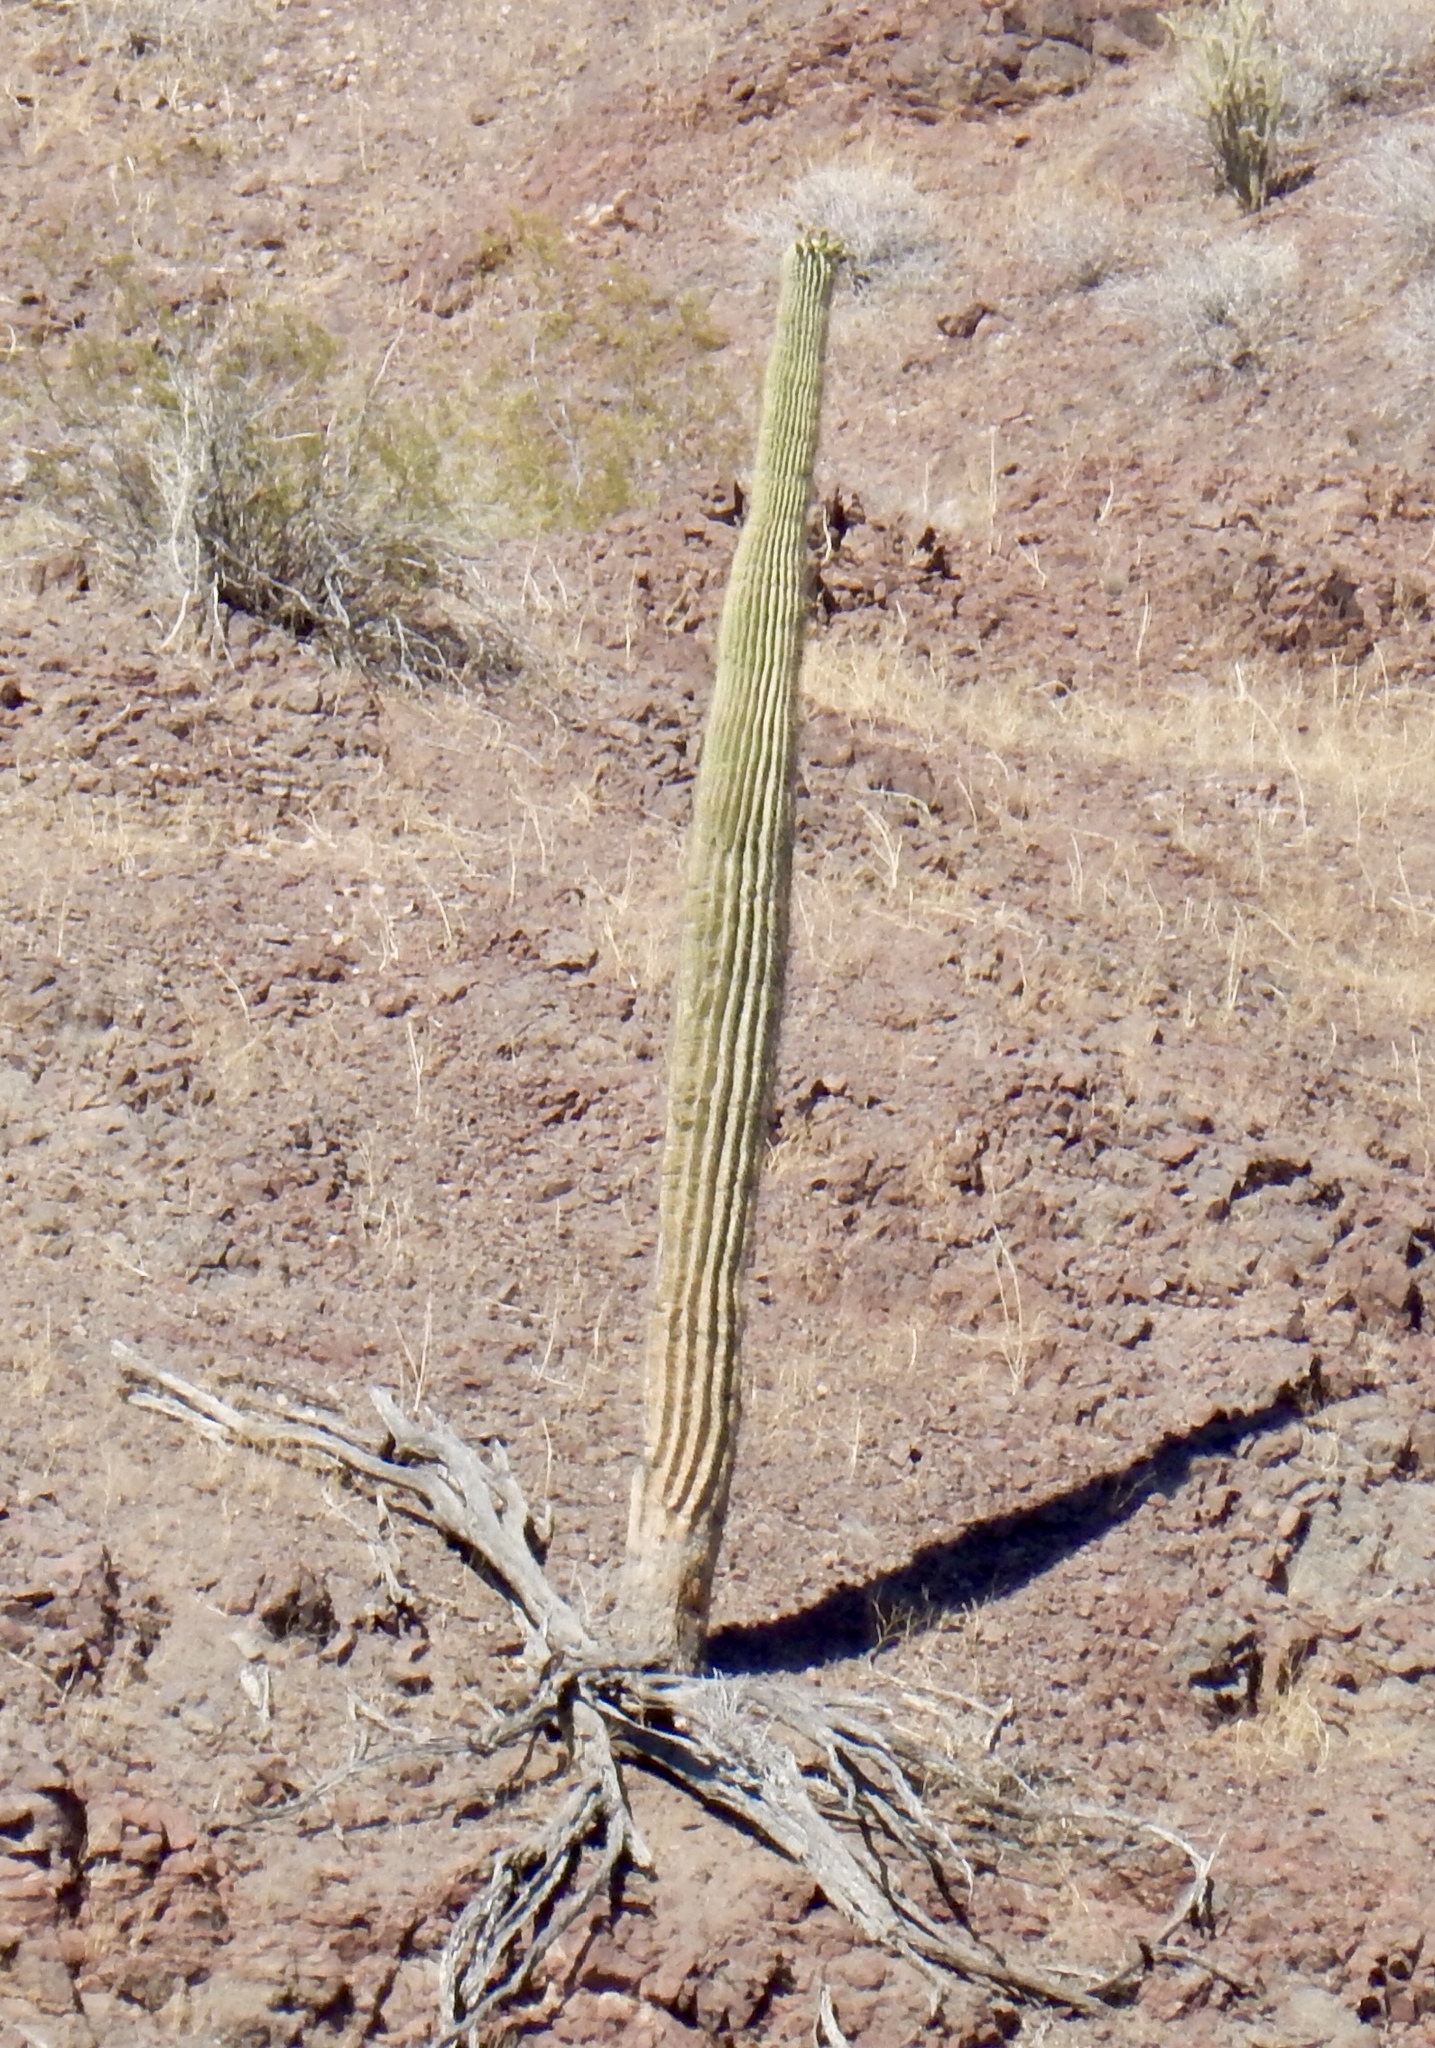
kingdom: Plantae
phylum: Tracheophyta
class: Magnoliopsida
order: Caryophyllales
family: Cactaceae
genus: Carnegiea
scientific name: Carnegiea gigantea
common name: Saguaro
